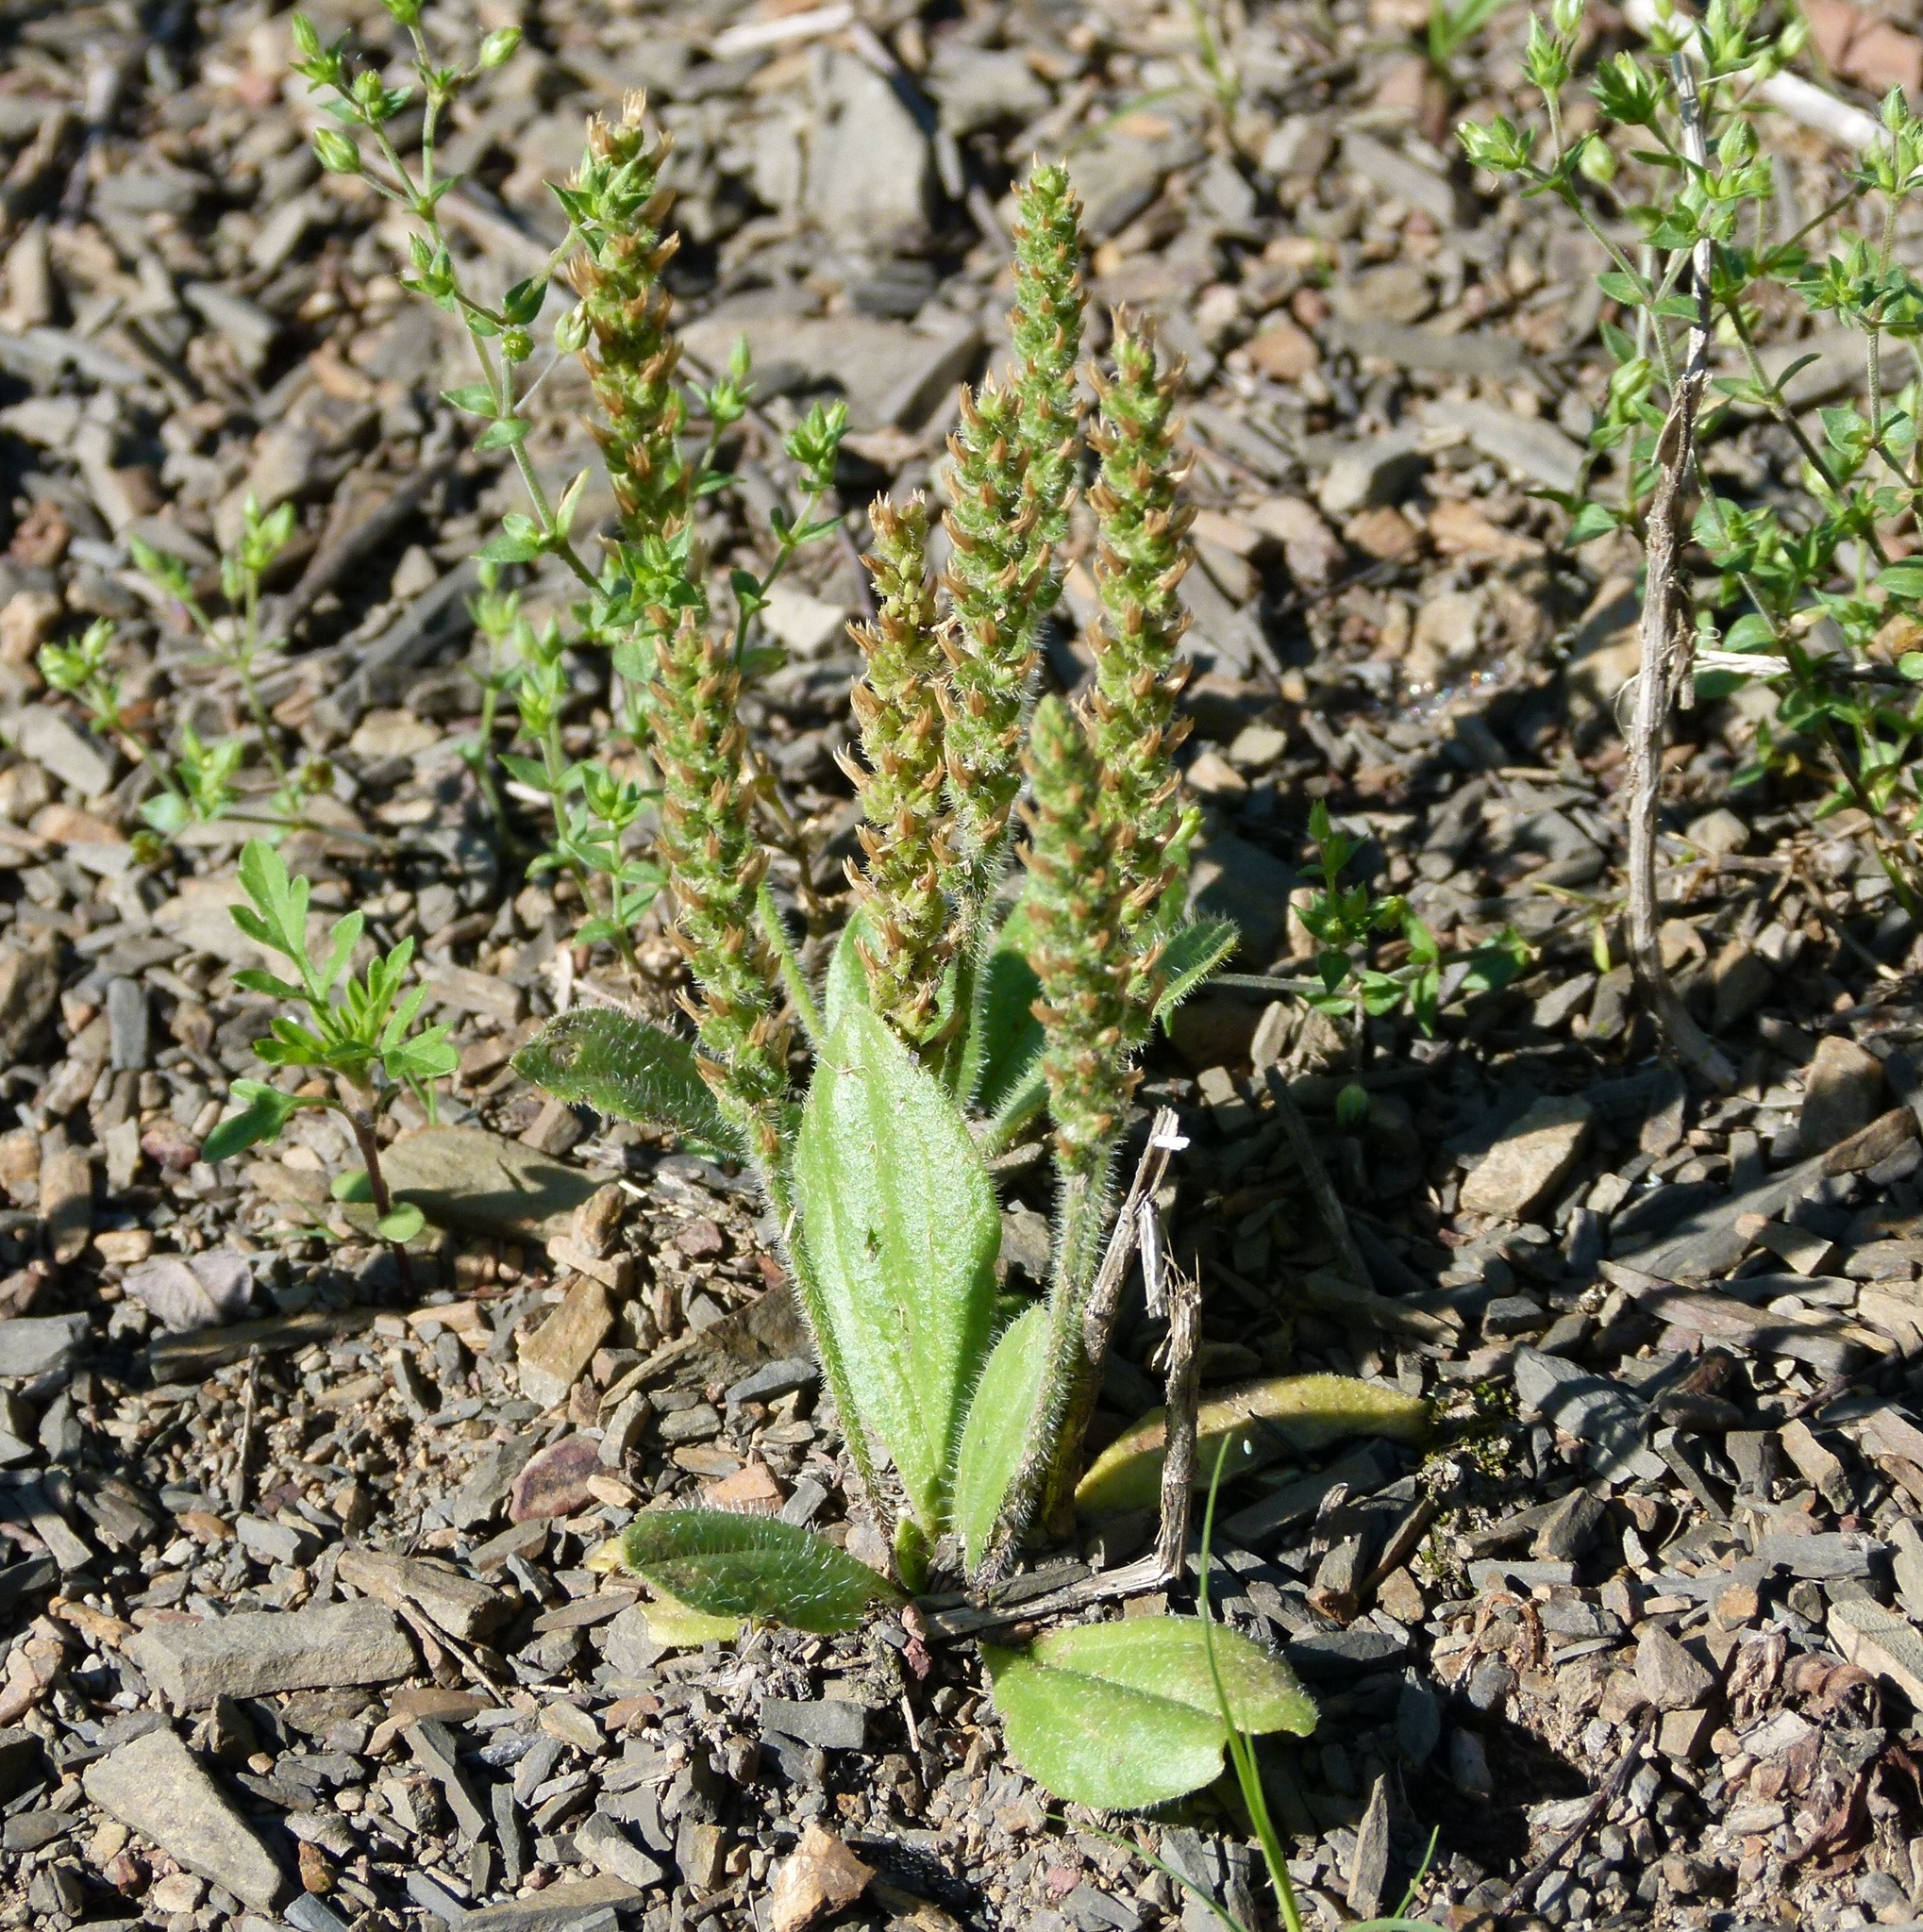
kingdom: Plantae
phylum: Tracheophyta
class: Magnoliopsida
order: Lamiales
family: Plantaginaceae
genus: Plantago
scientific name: Plantago virginica
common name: Hoary plantain
